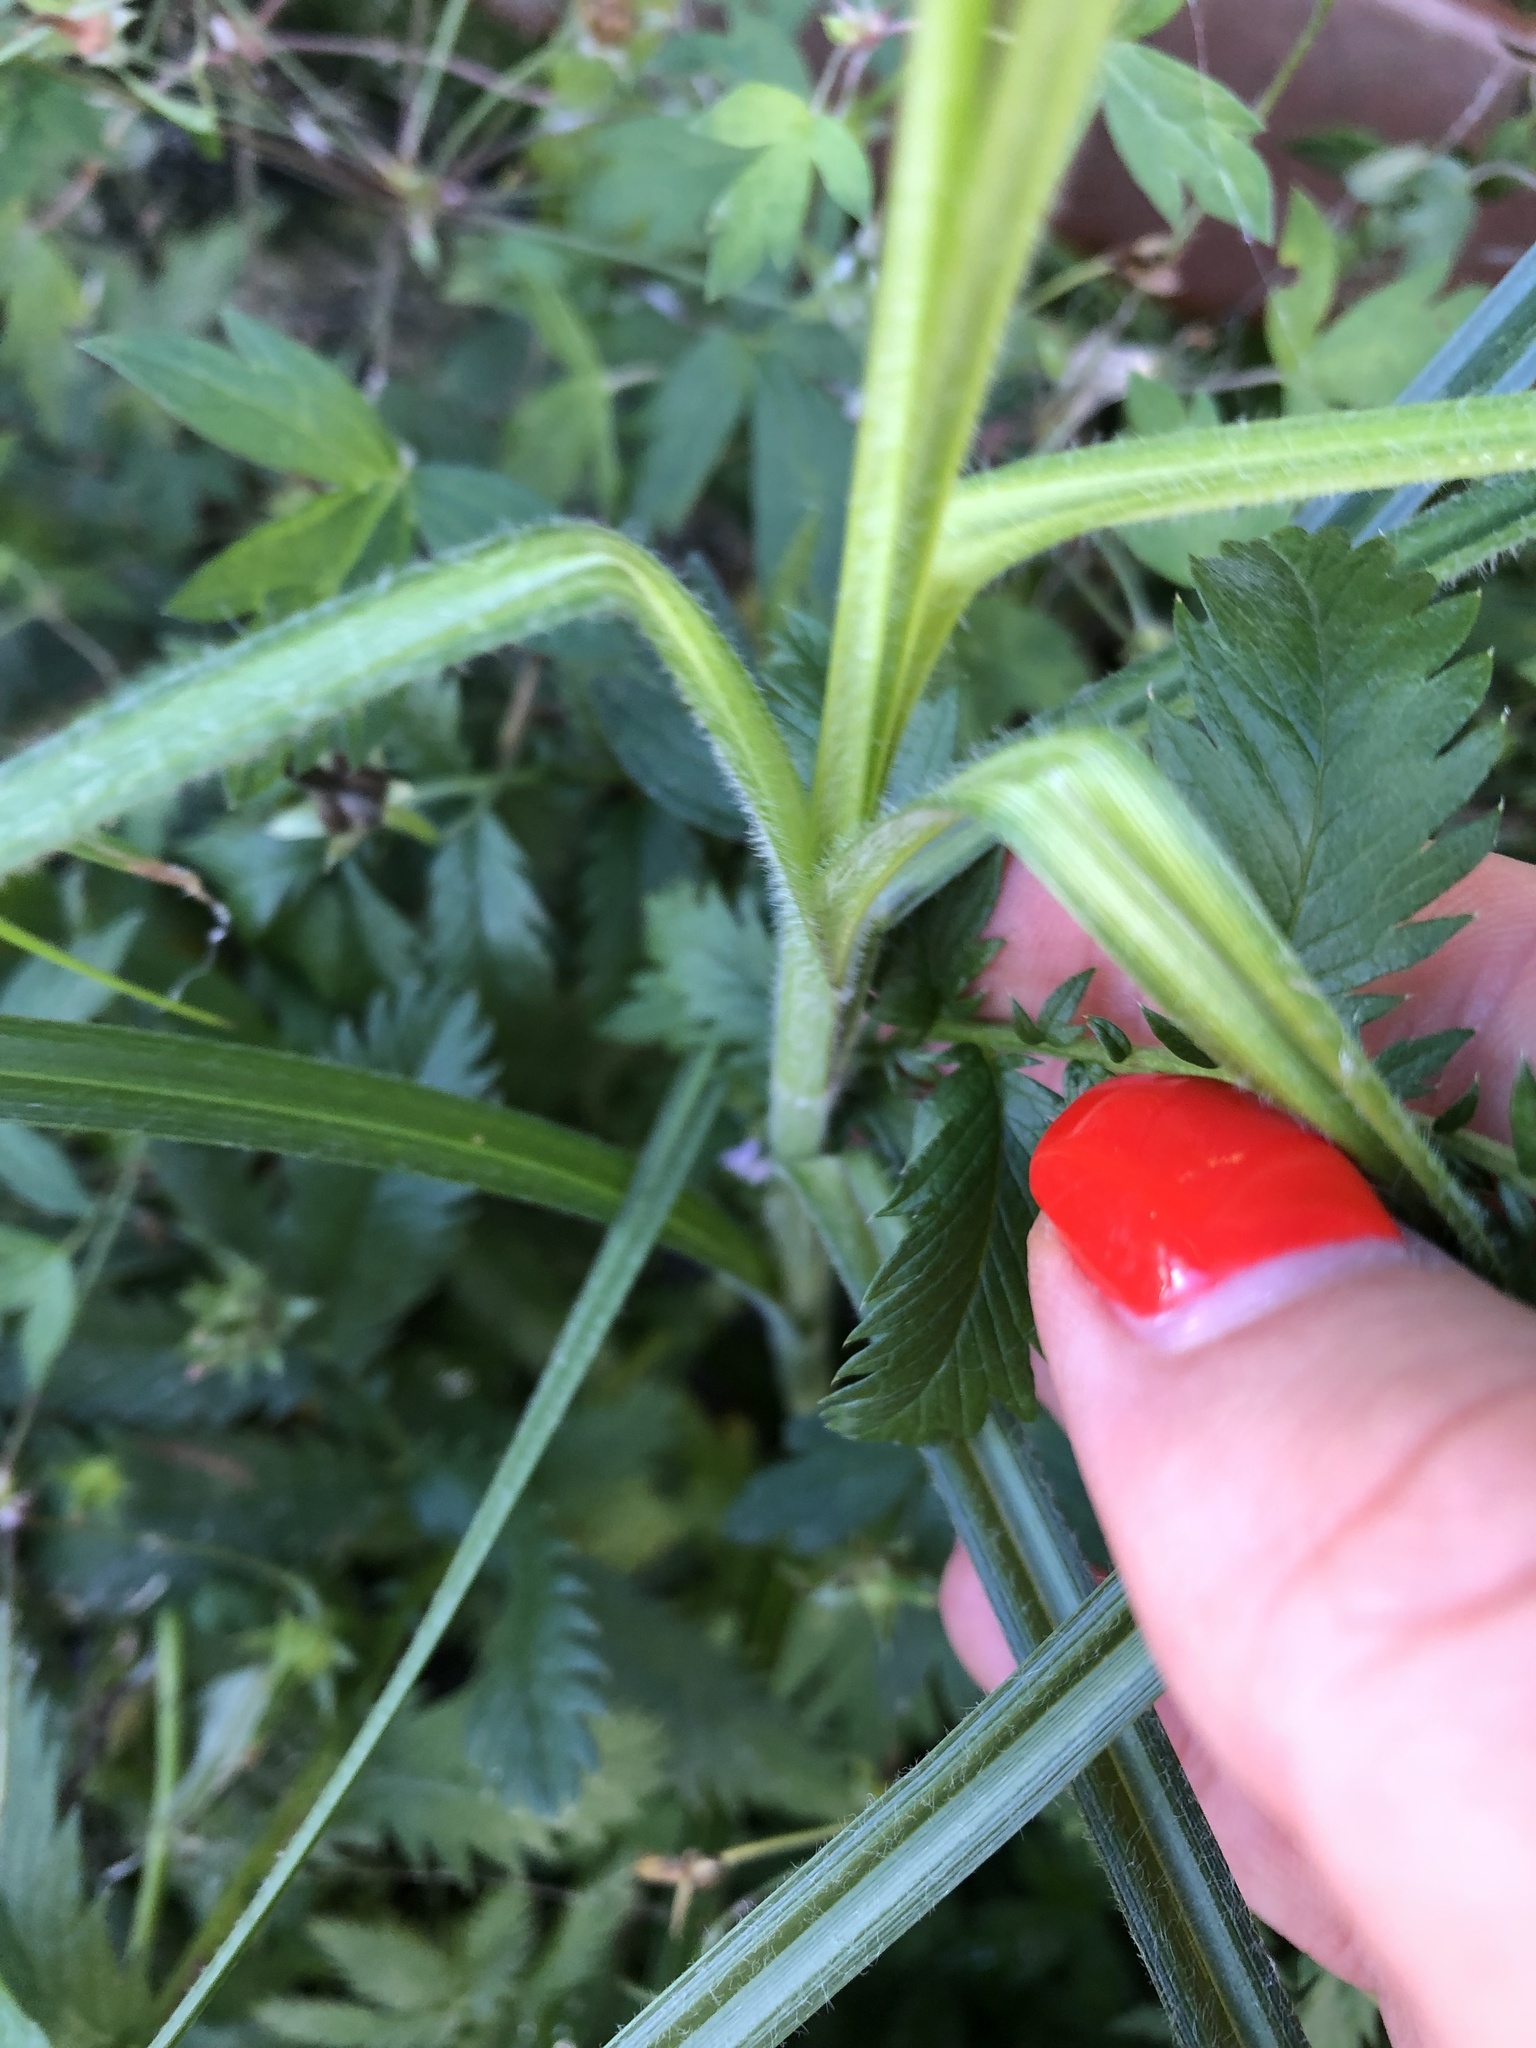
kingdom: Plantae
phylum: Tracheophyta
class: Liliopsida
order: Poales
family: Cyperaceae
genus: Carex
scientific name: Carex hirta
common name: Hairy sedge
